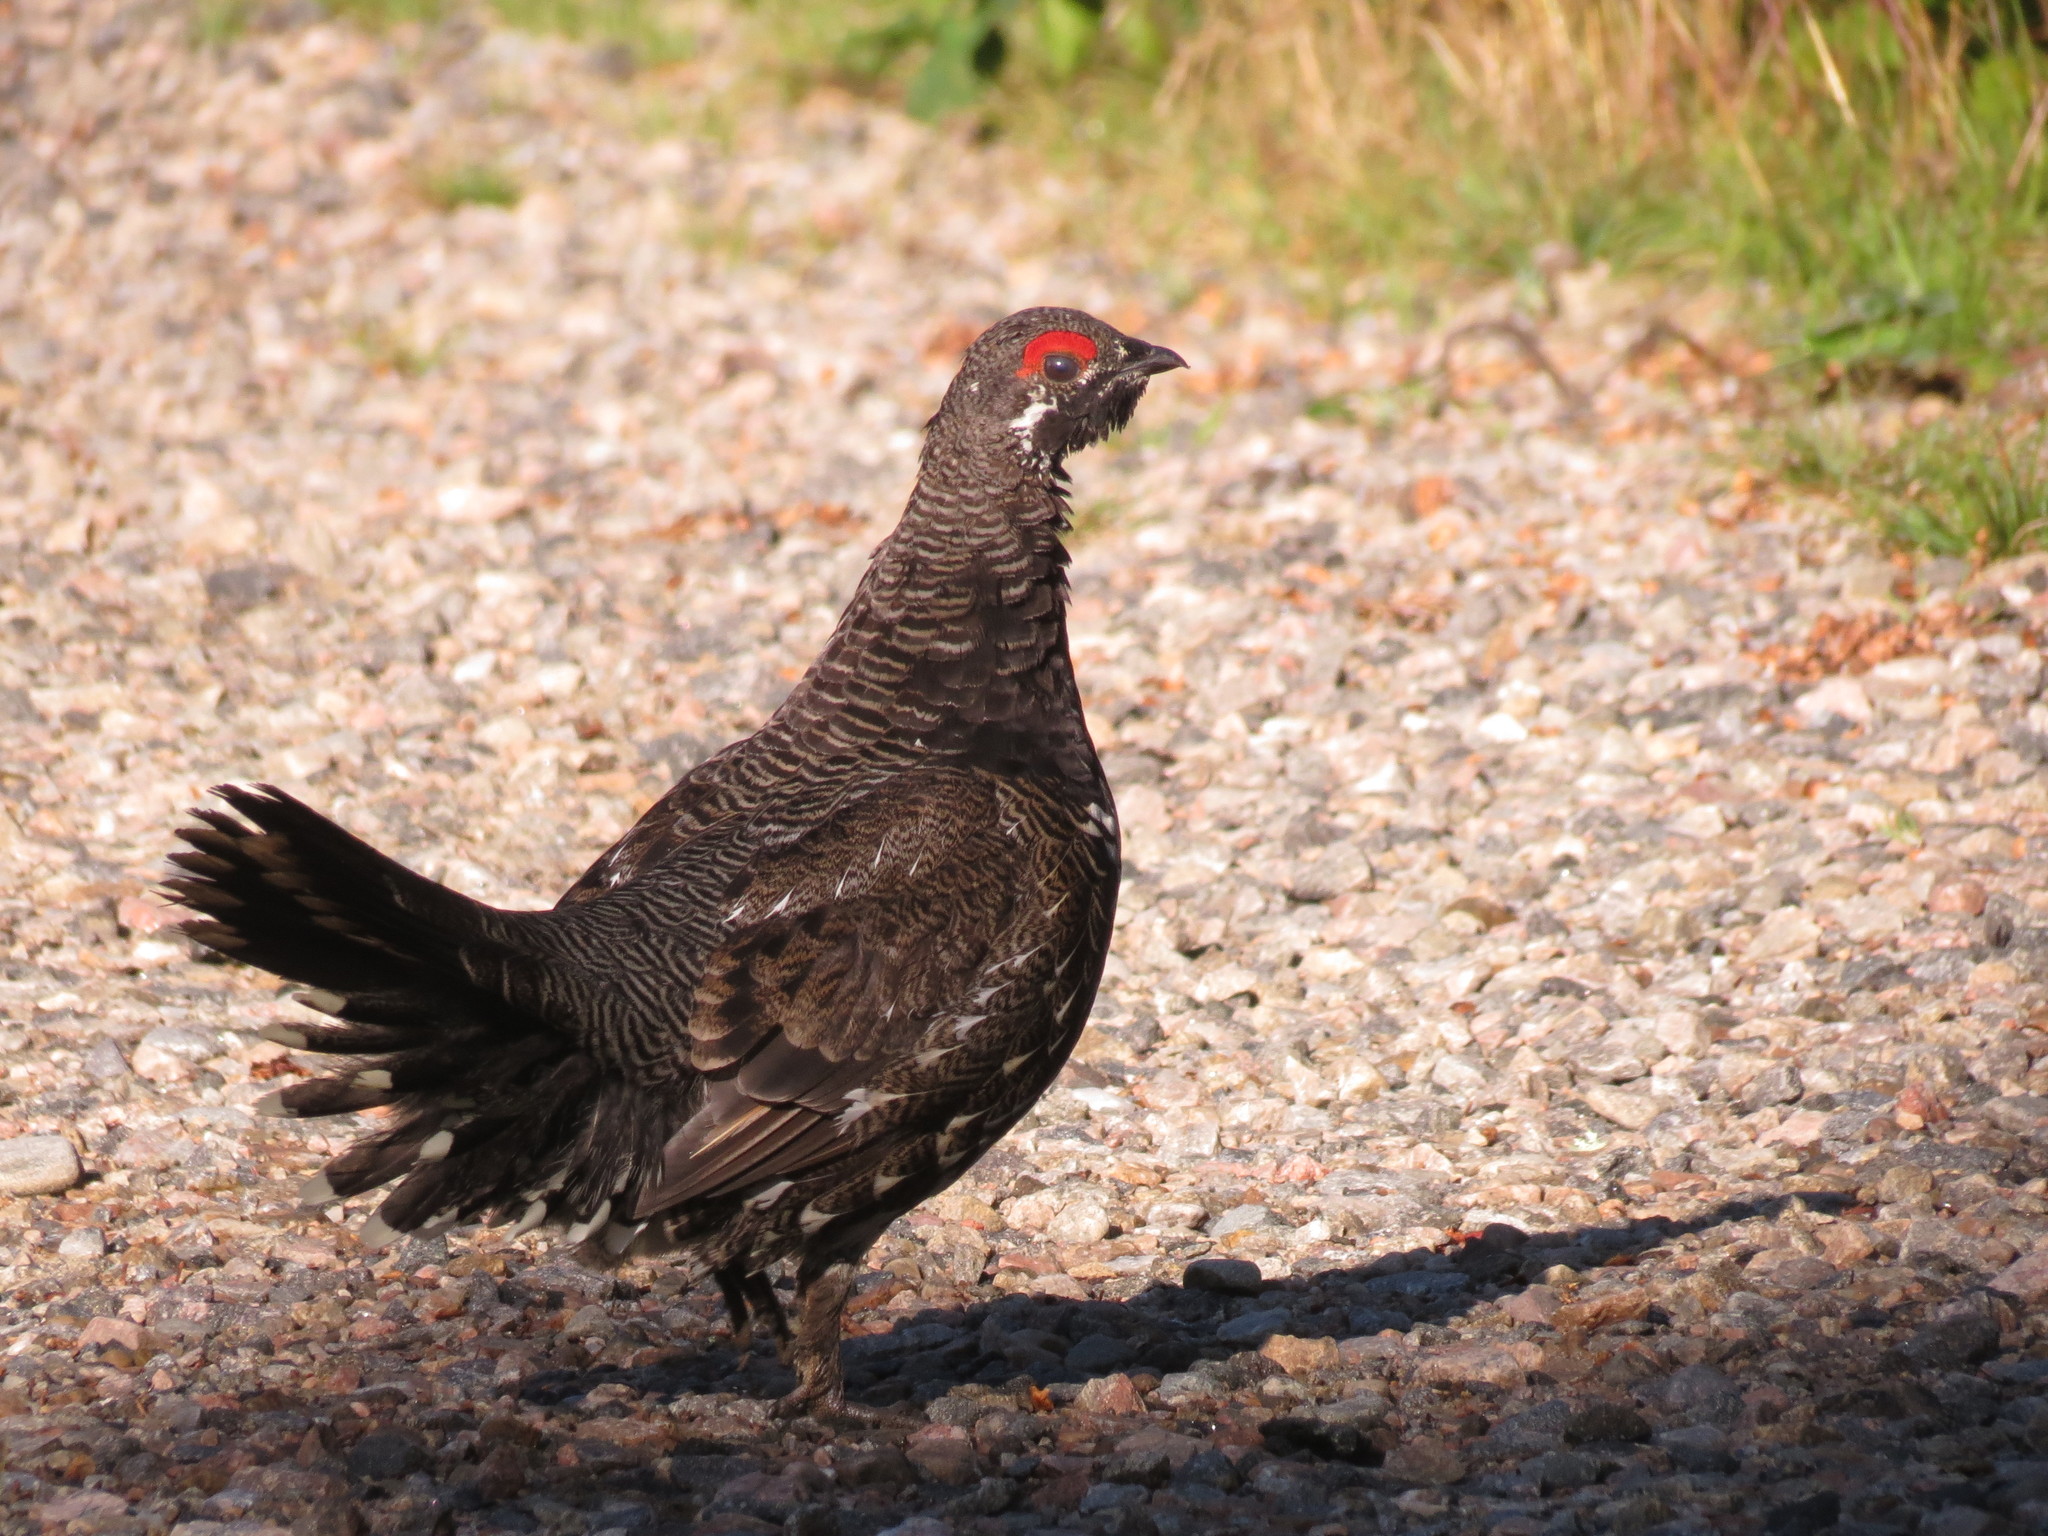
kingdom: Animalia
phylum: Chordata
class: Aves
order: Galliformes
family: Phasianidae
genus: Canachites
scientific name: Canachites canadensis
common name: Spruce grouse
